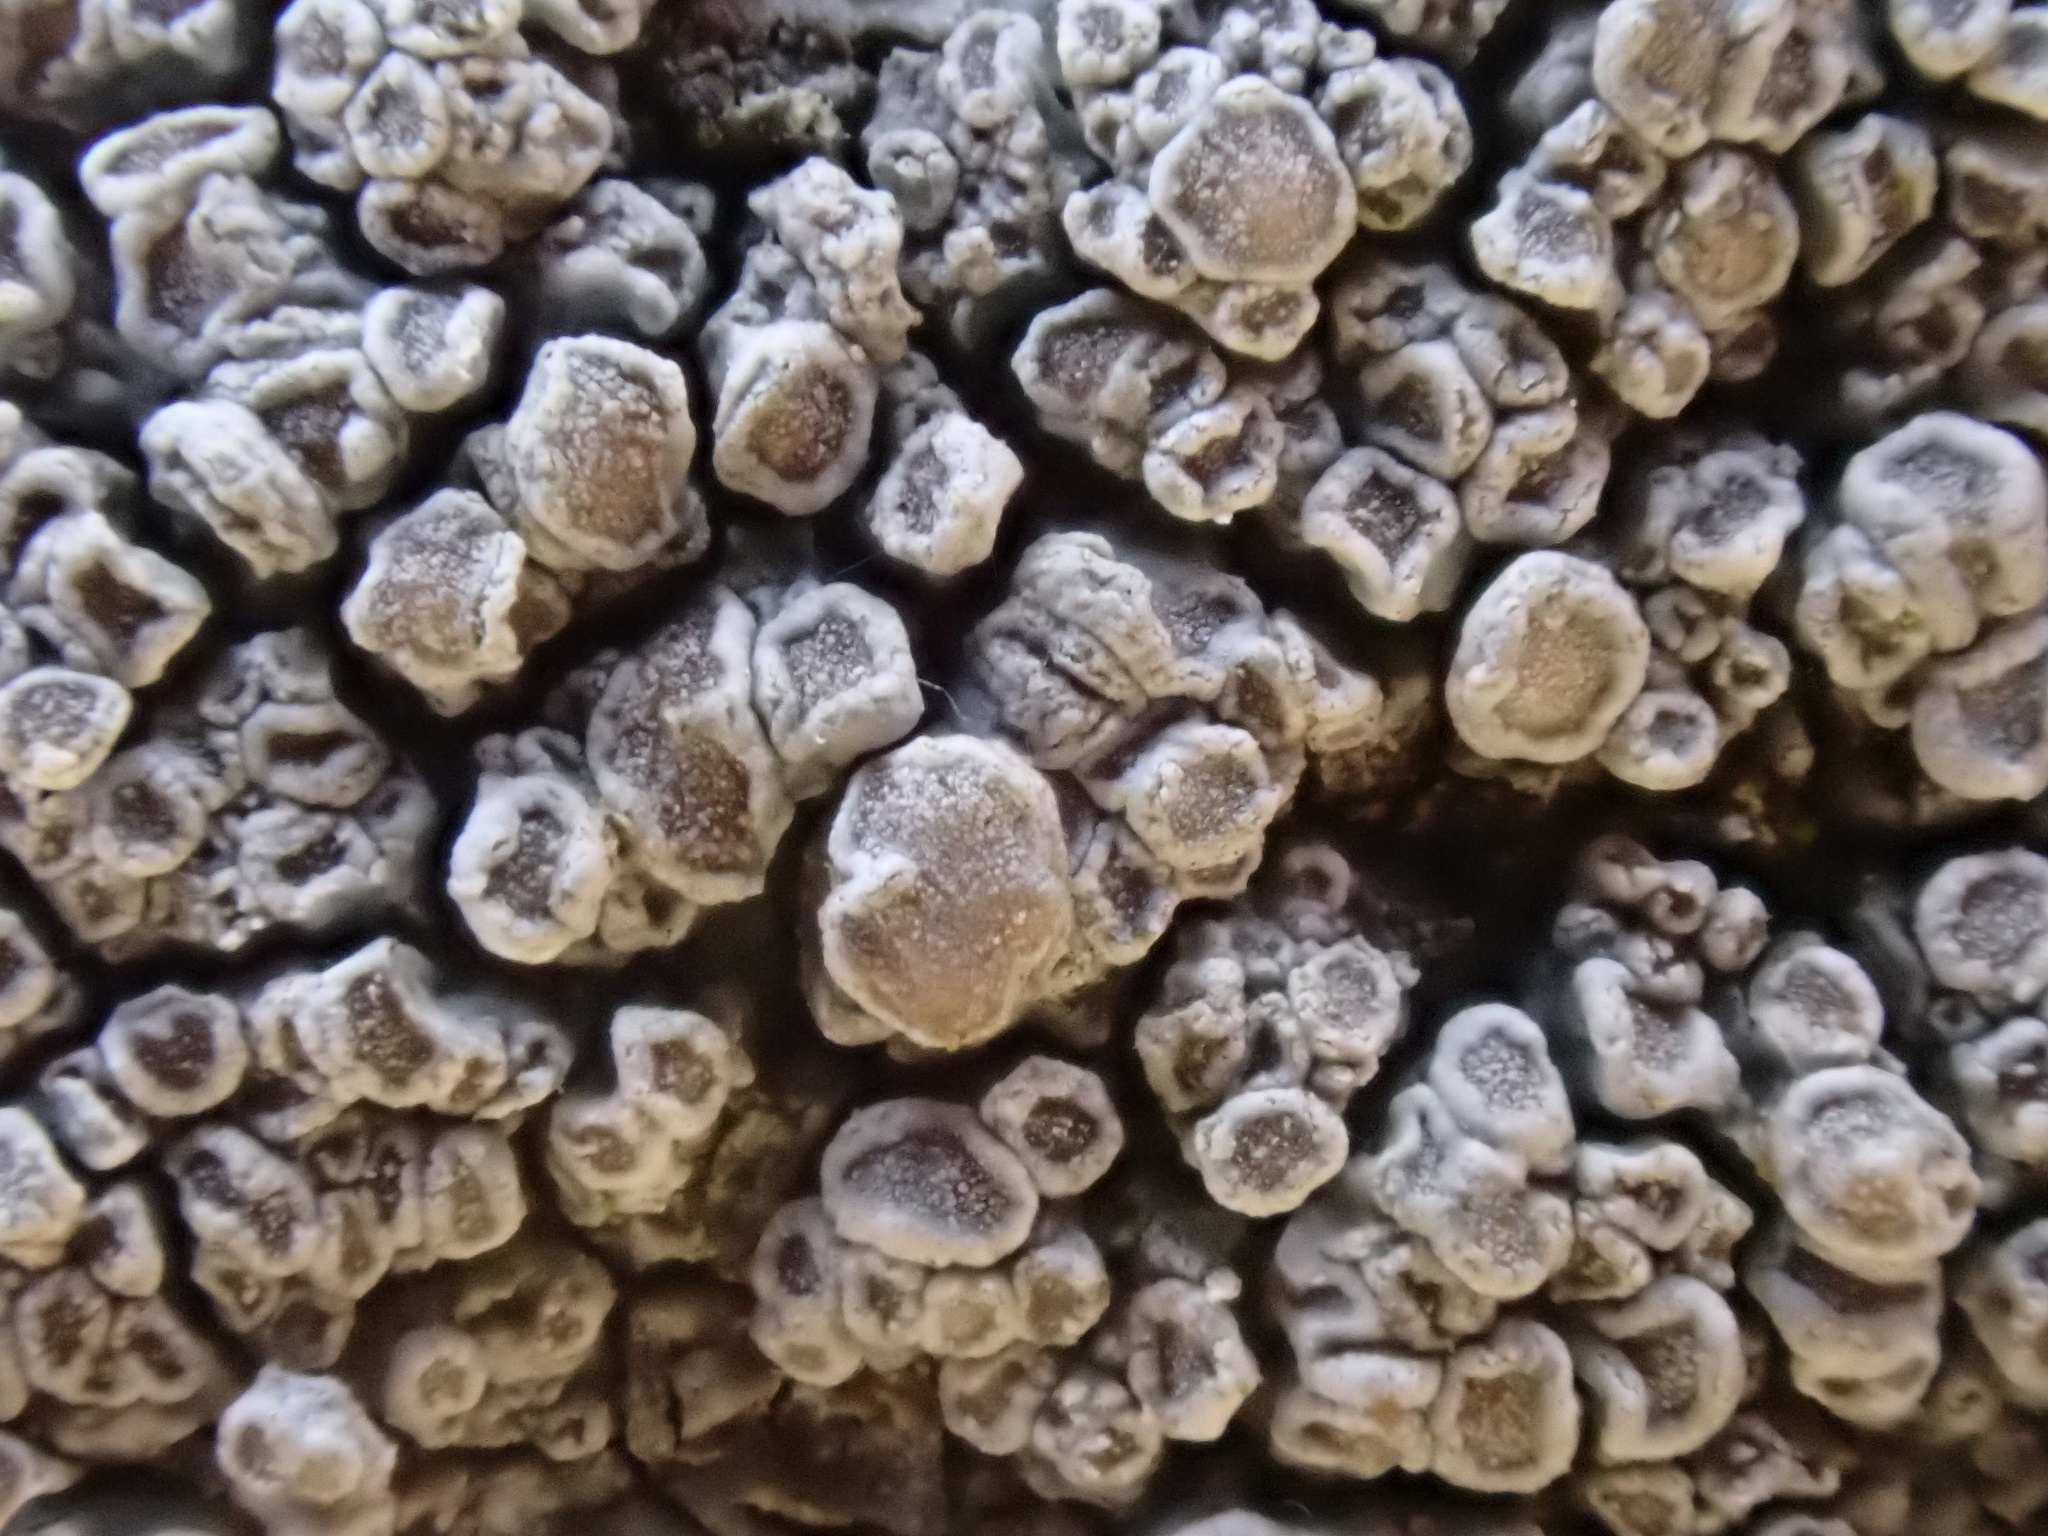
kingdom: Fungi
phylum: Ascomycota
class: Lecanoromycetes
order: Lecanorales
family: Lecanoraceae
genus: Glaucomaria
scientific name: Glaucomaria carpinea
